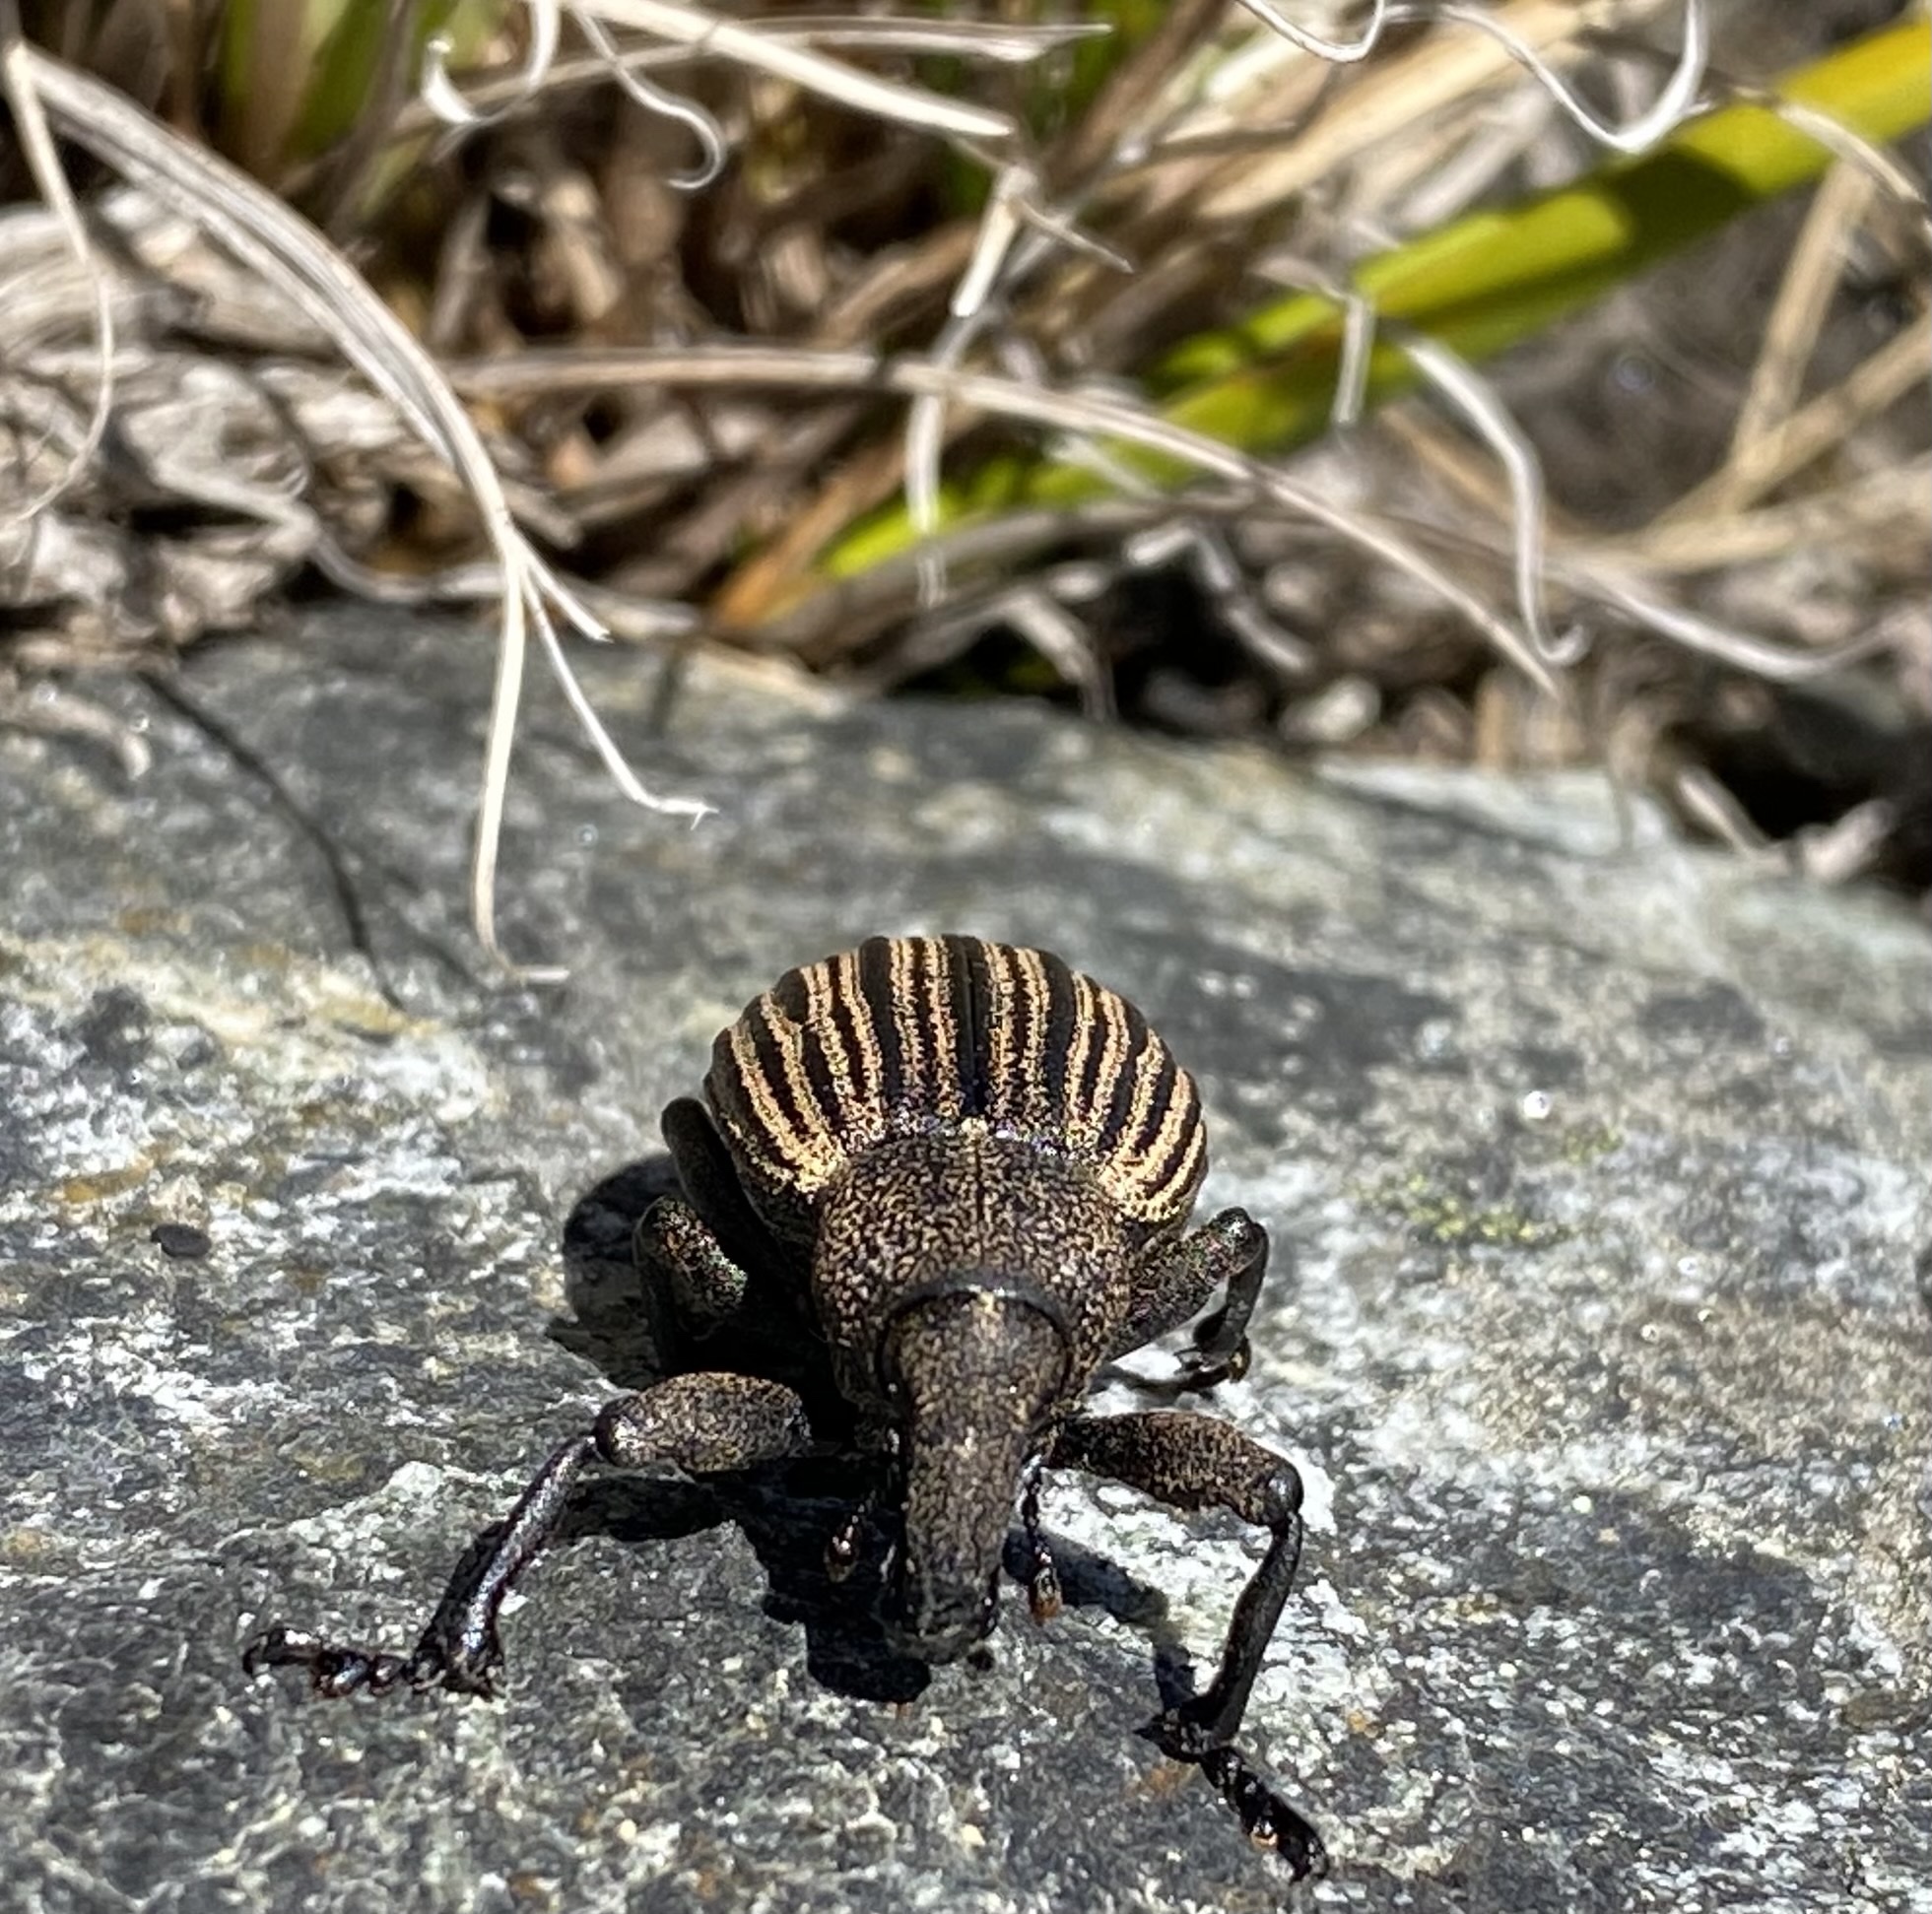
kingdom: Animalia
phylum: Arthropoda
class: Insecta
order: Coleoptera
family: Curculionidae
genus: Lyperobius
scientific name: Lyperobius cupiendus
